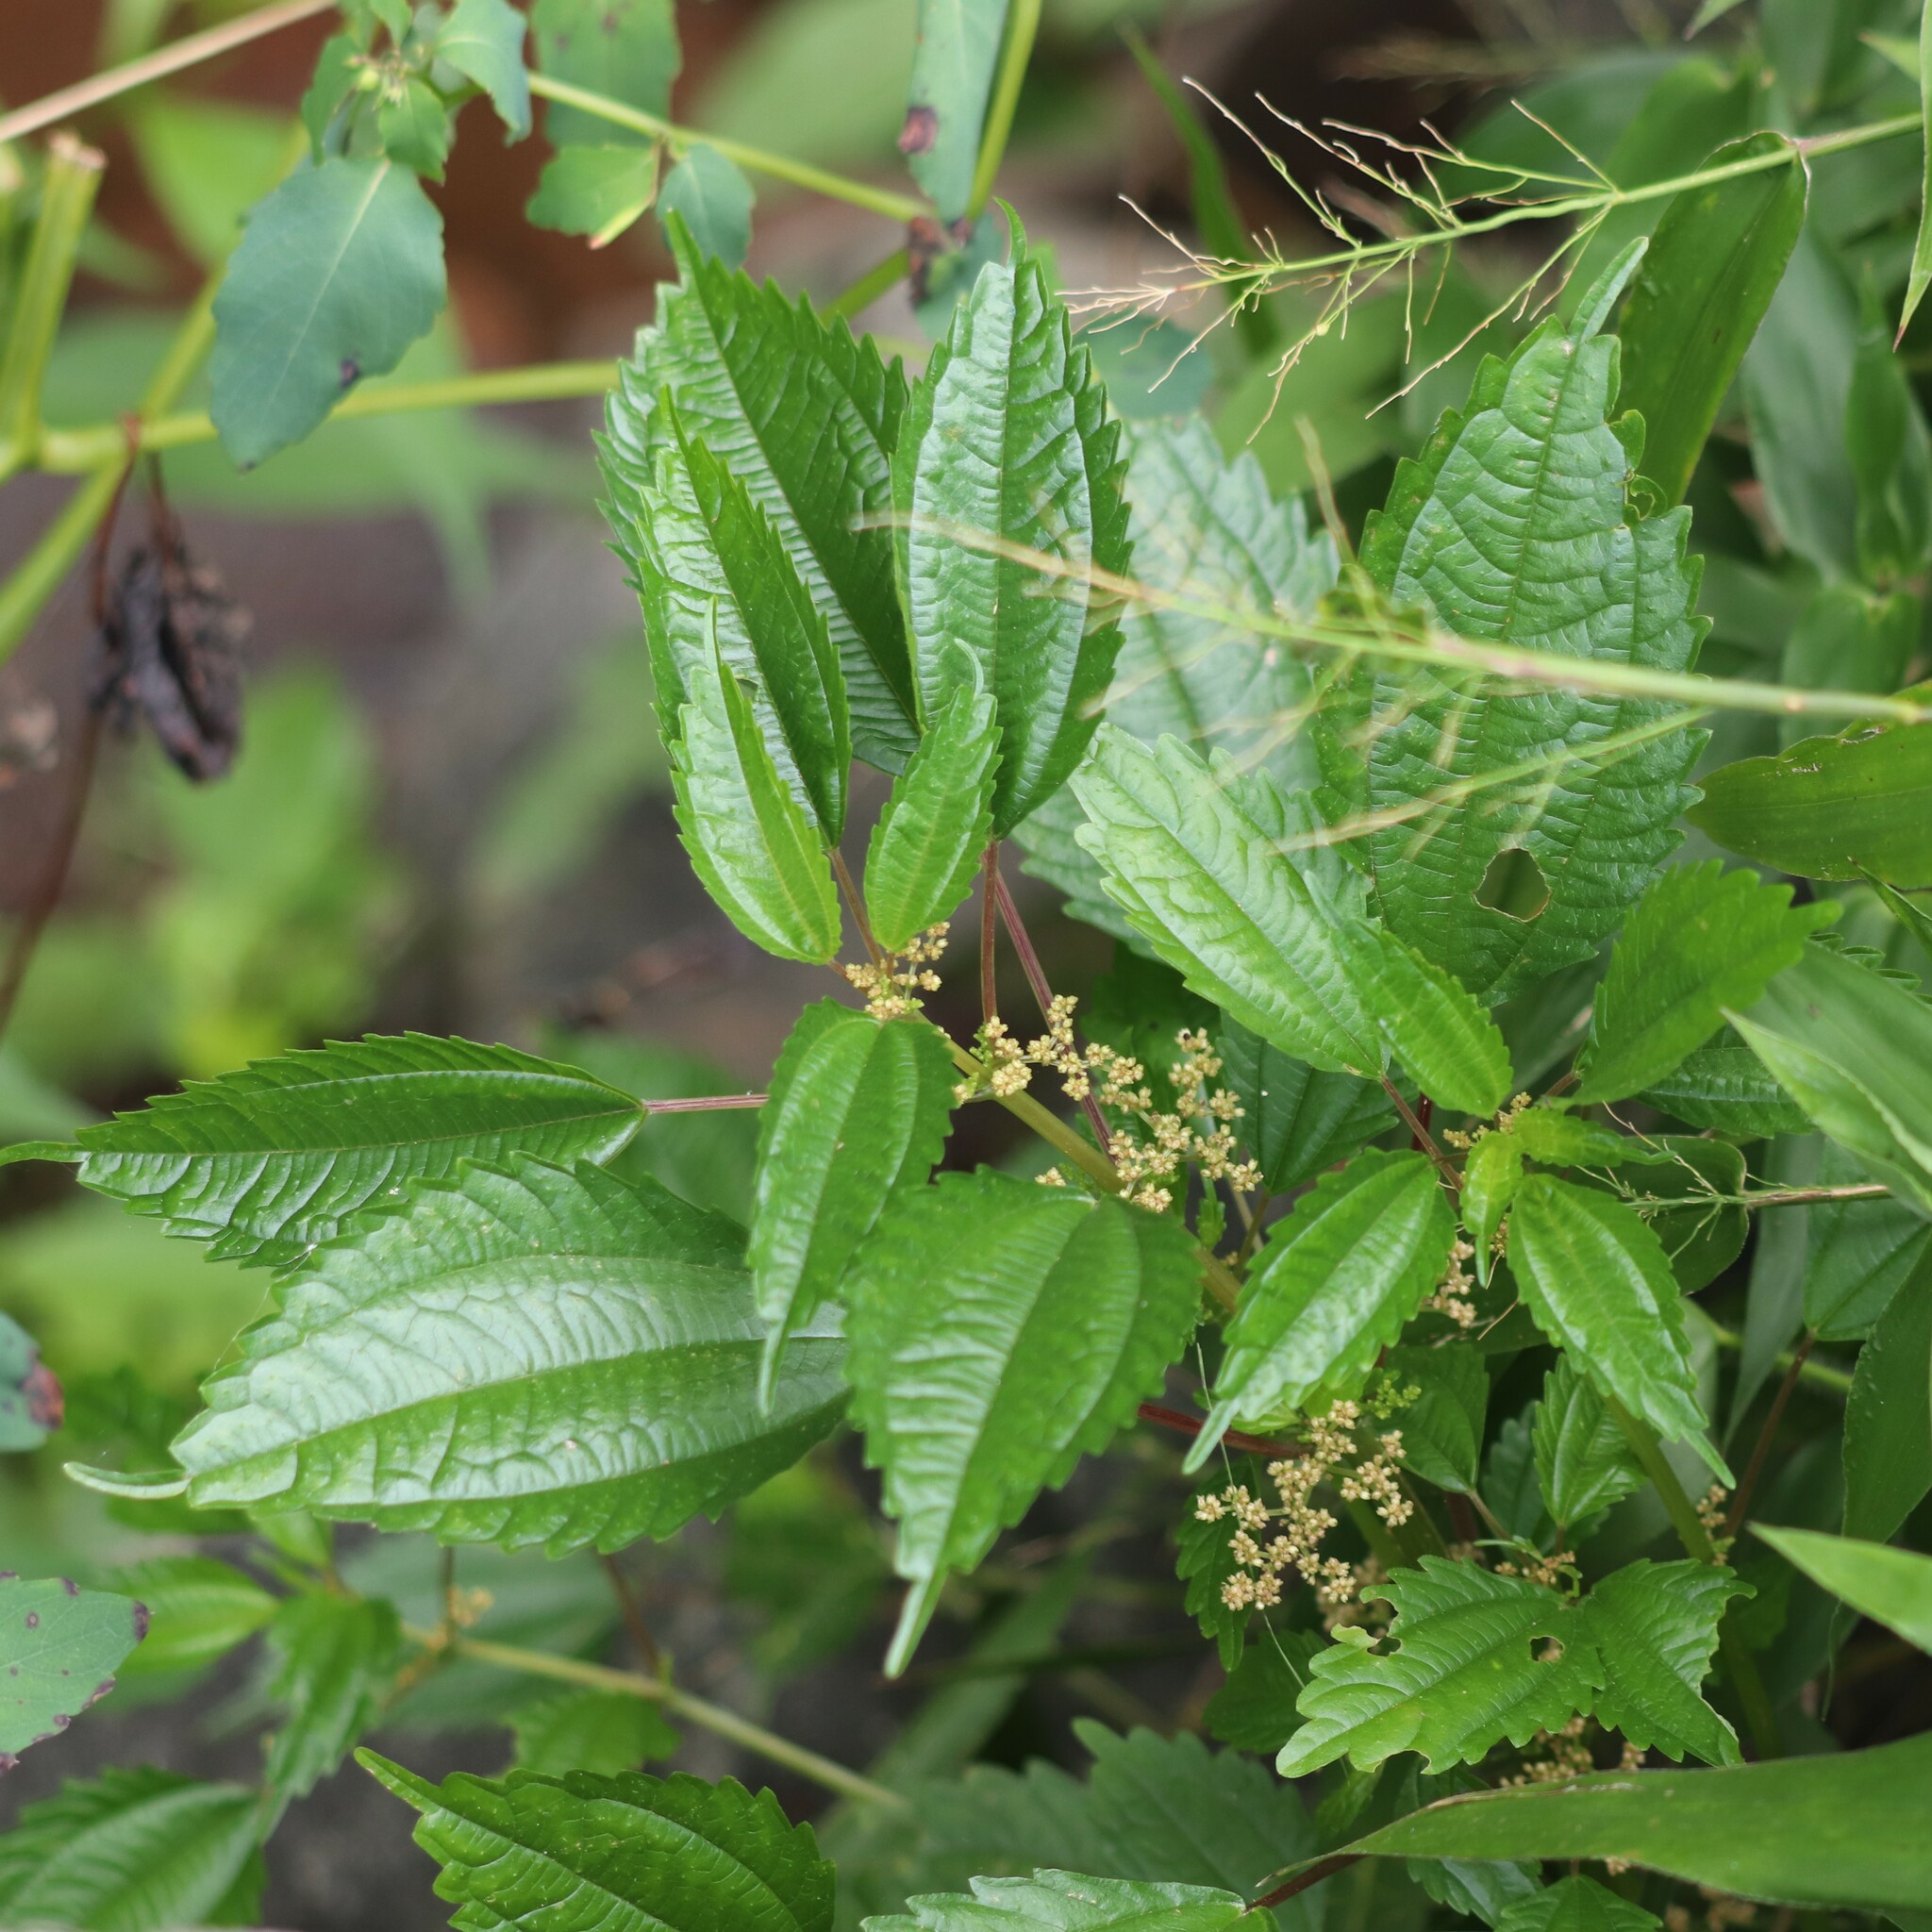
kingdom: Plantae
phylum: Tracheophyta
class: Magnoliopsida
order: Rosales
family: Urticaceae
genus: Pilea
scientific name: Pilea pumila
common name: Clearweed
